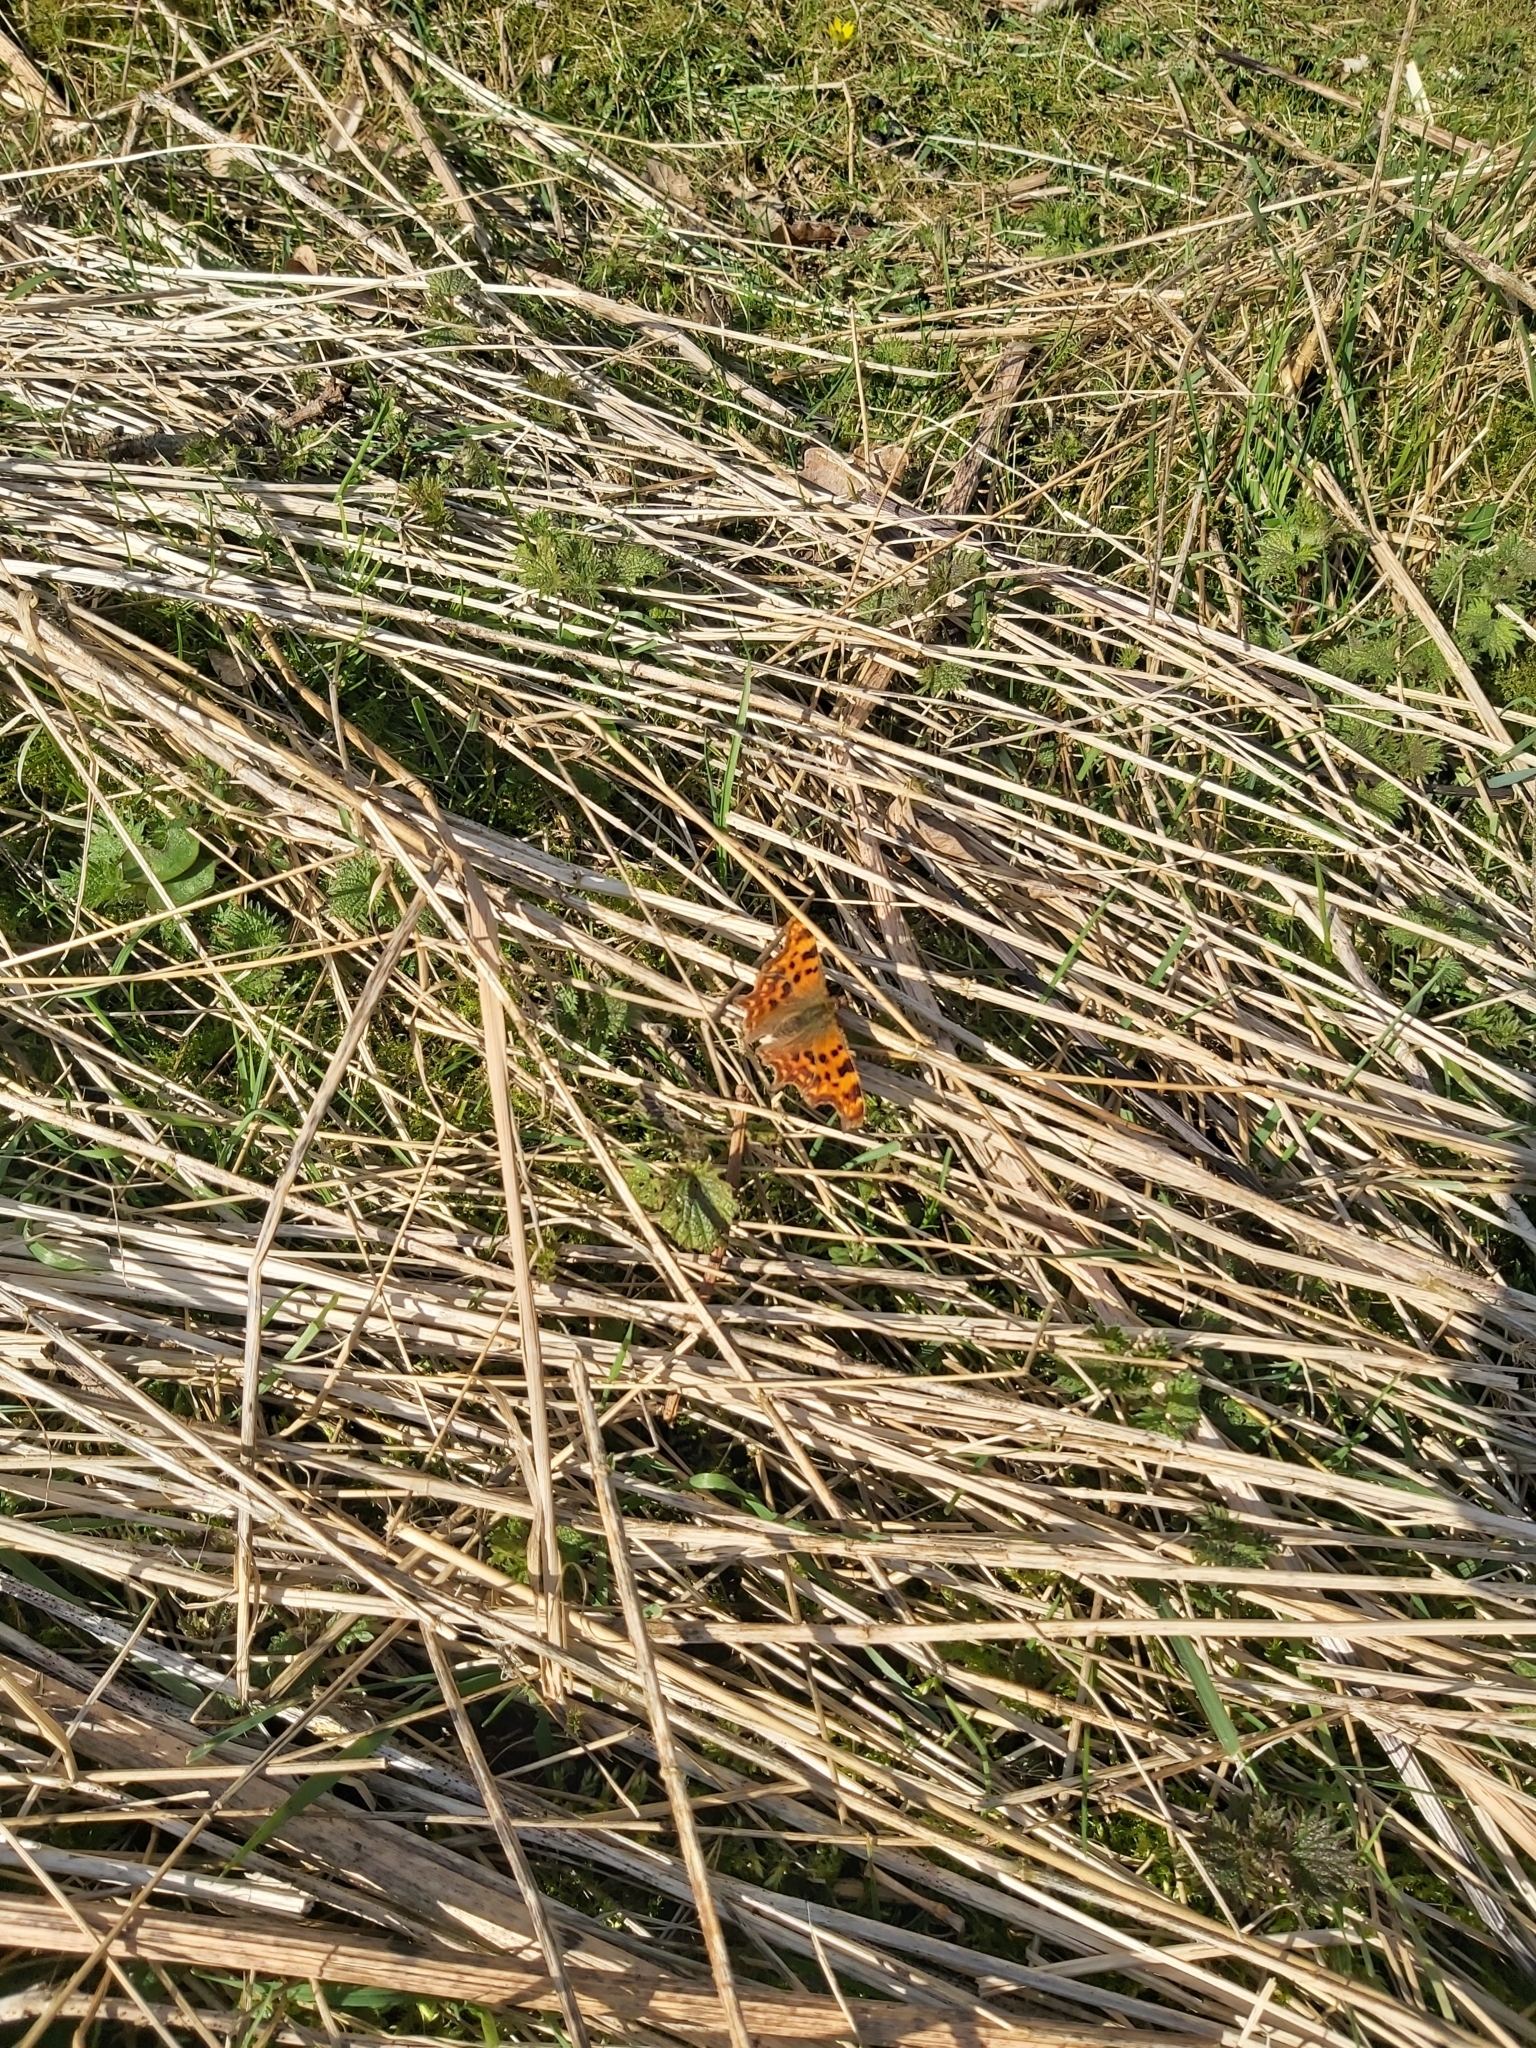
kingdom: Animalia
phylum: Arthropoda
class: Insecta
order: Lepidoptera
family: Nymphalidae
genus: Polygonia
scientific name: Polygonia c-album
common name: Comma
